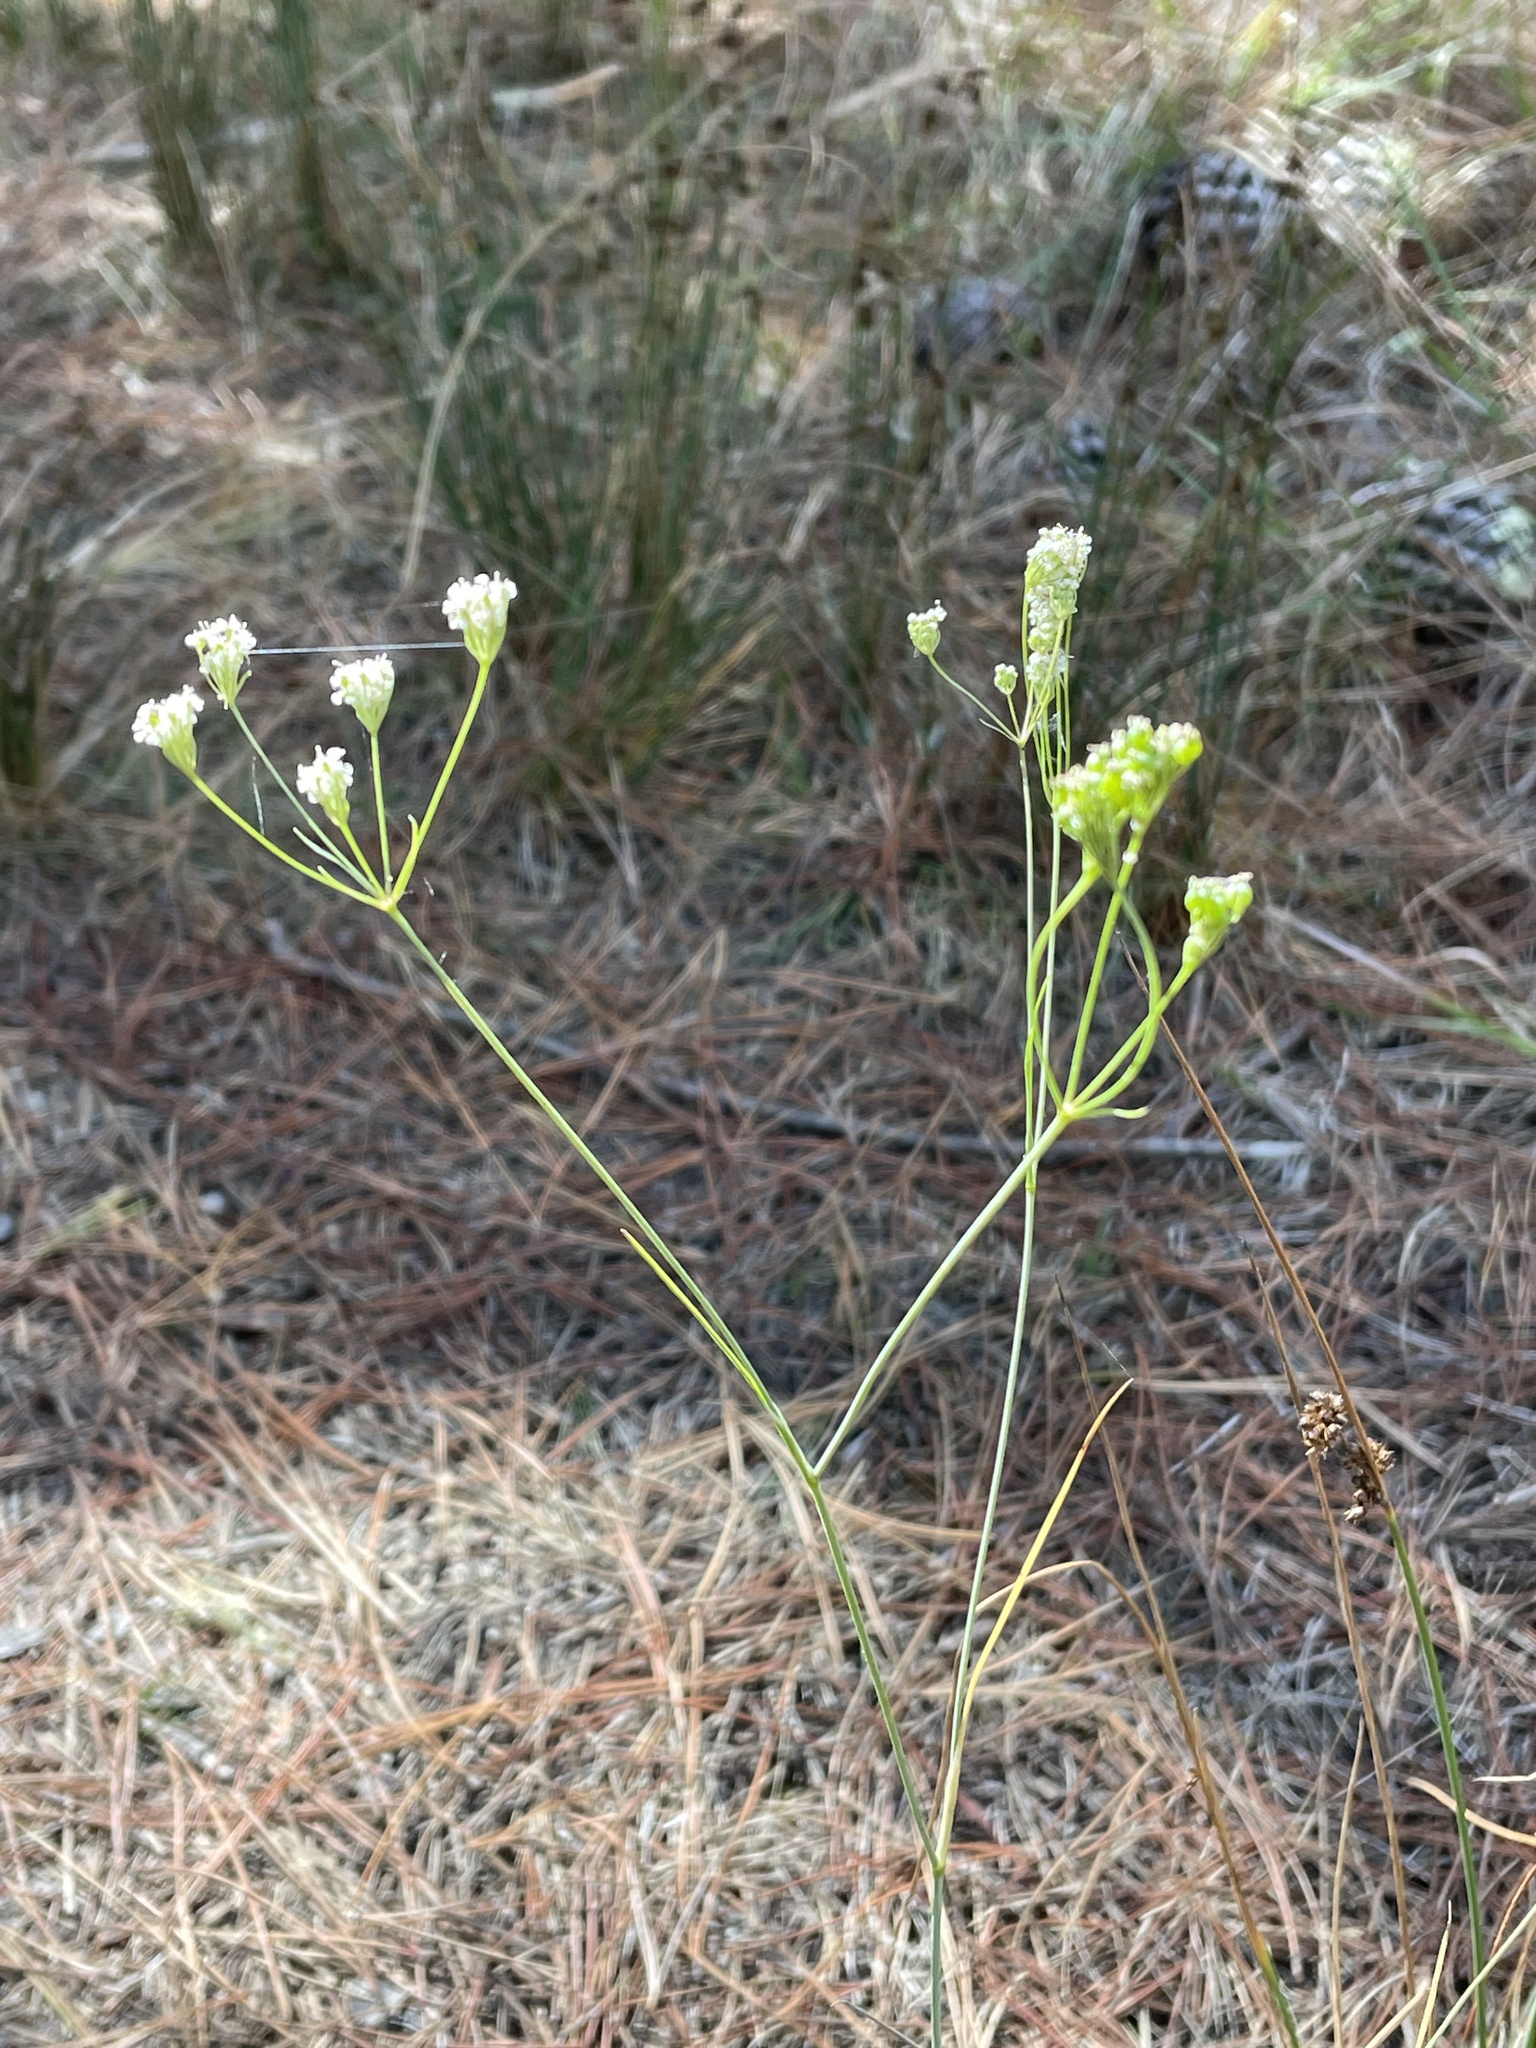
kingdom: Plantae
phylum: Tracheophyta
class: Magnoliopsida
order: Apiales
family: Apiaceae
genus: Perideridia
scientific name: Perideridia kelloggii
